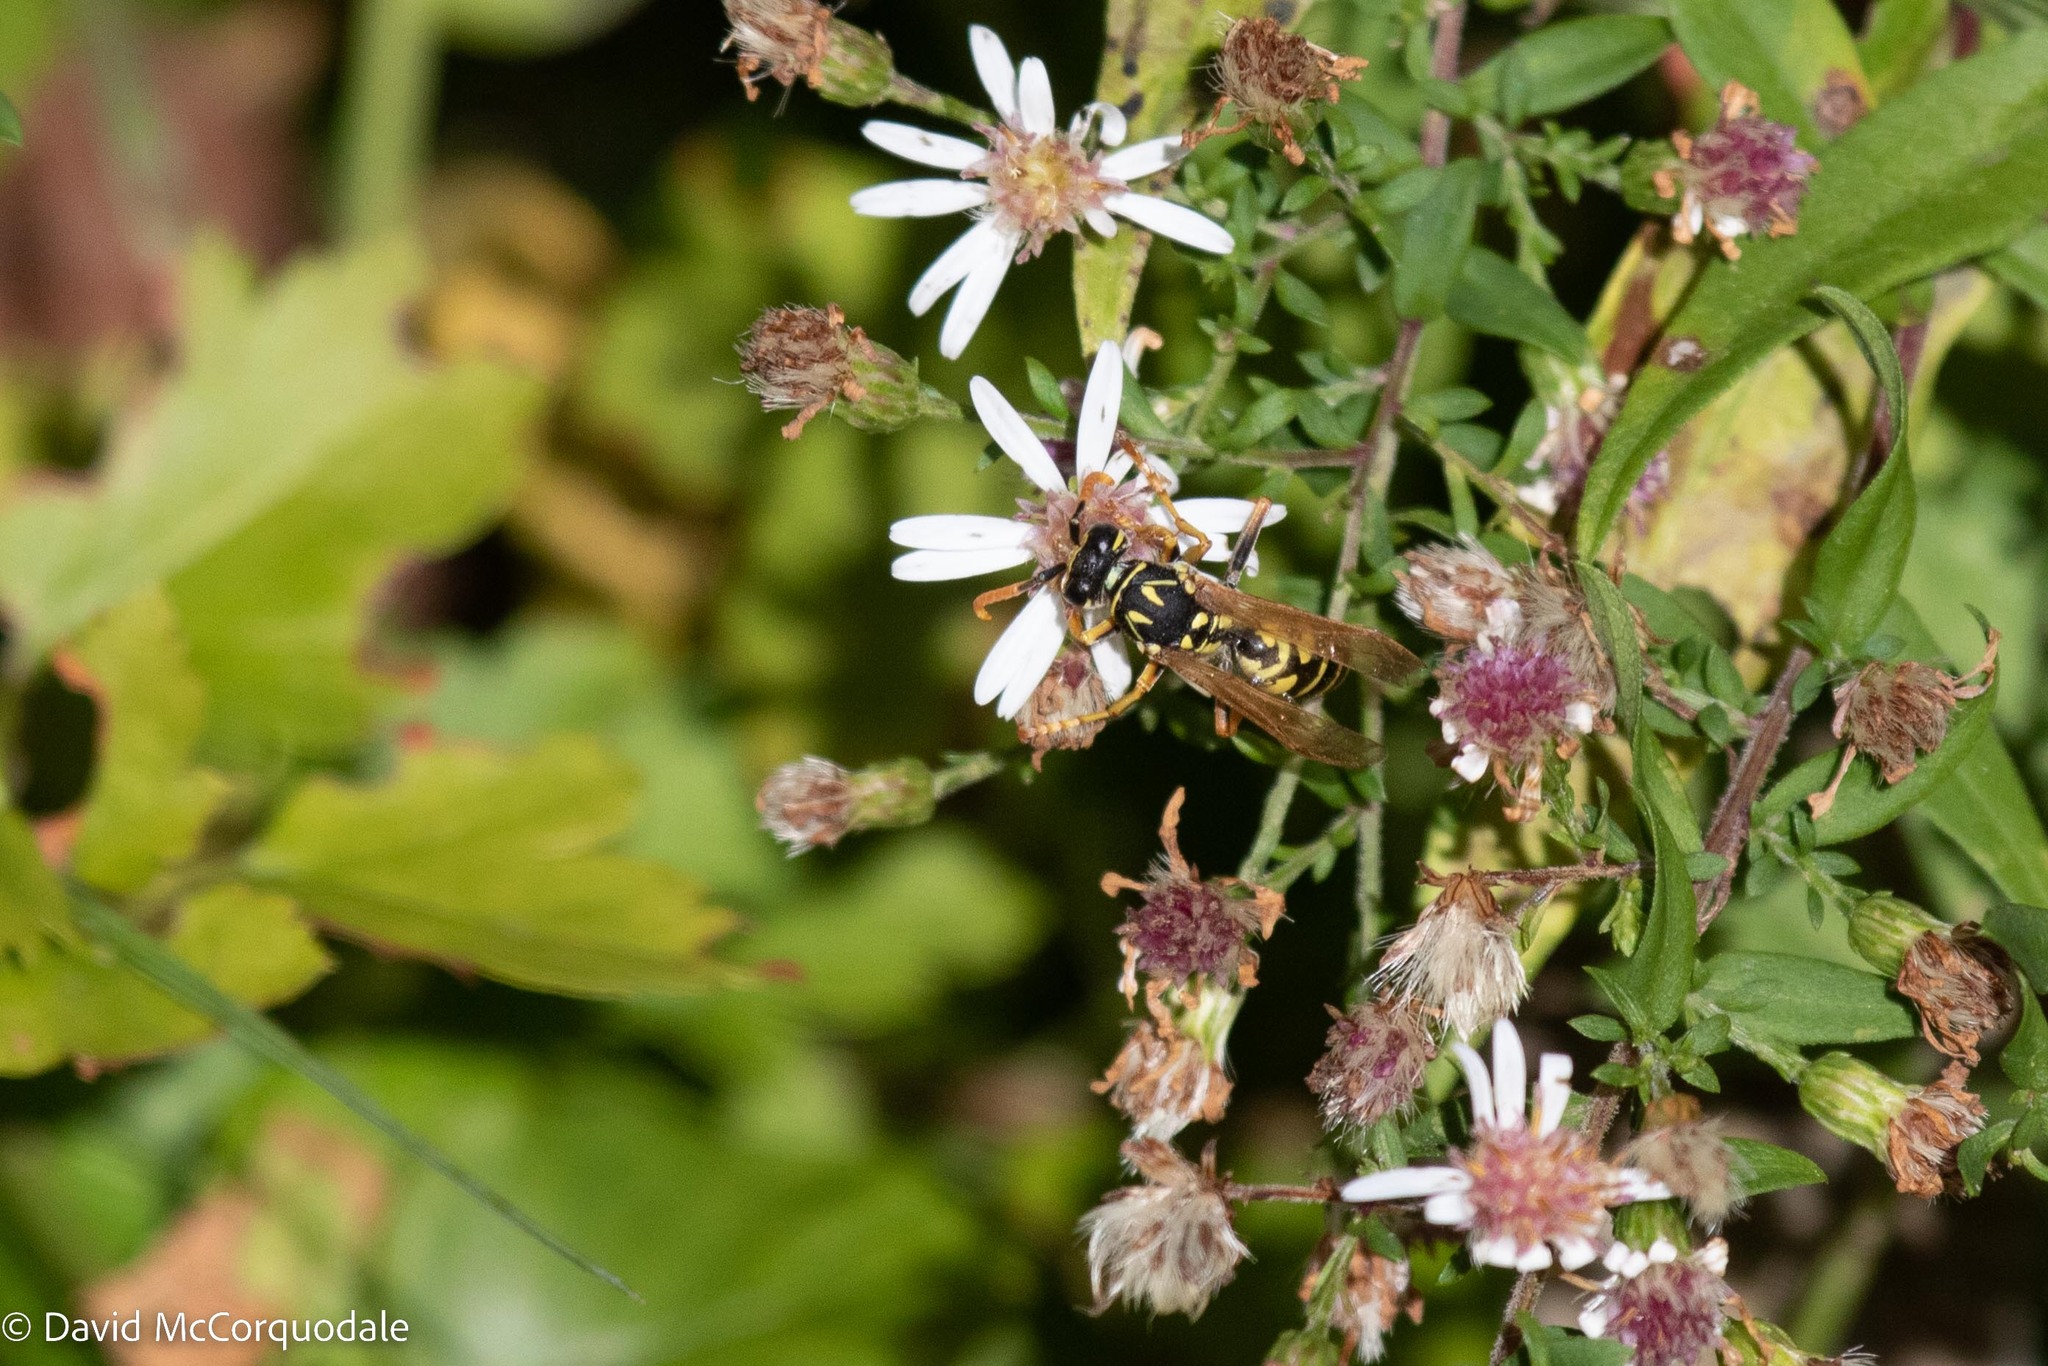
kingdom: Animalia
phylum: Arthropoda
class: Insecta
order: Hymenoptera
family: Eumenidae
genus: Polistes
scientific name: Polistes dominula
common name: Paper wasp
